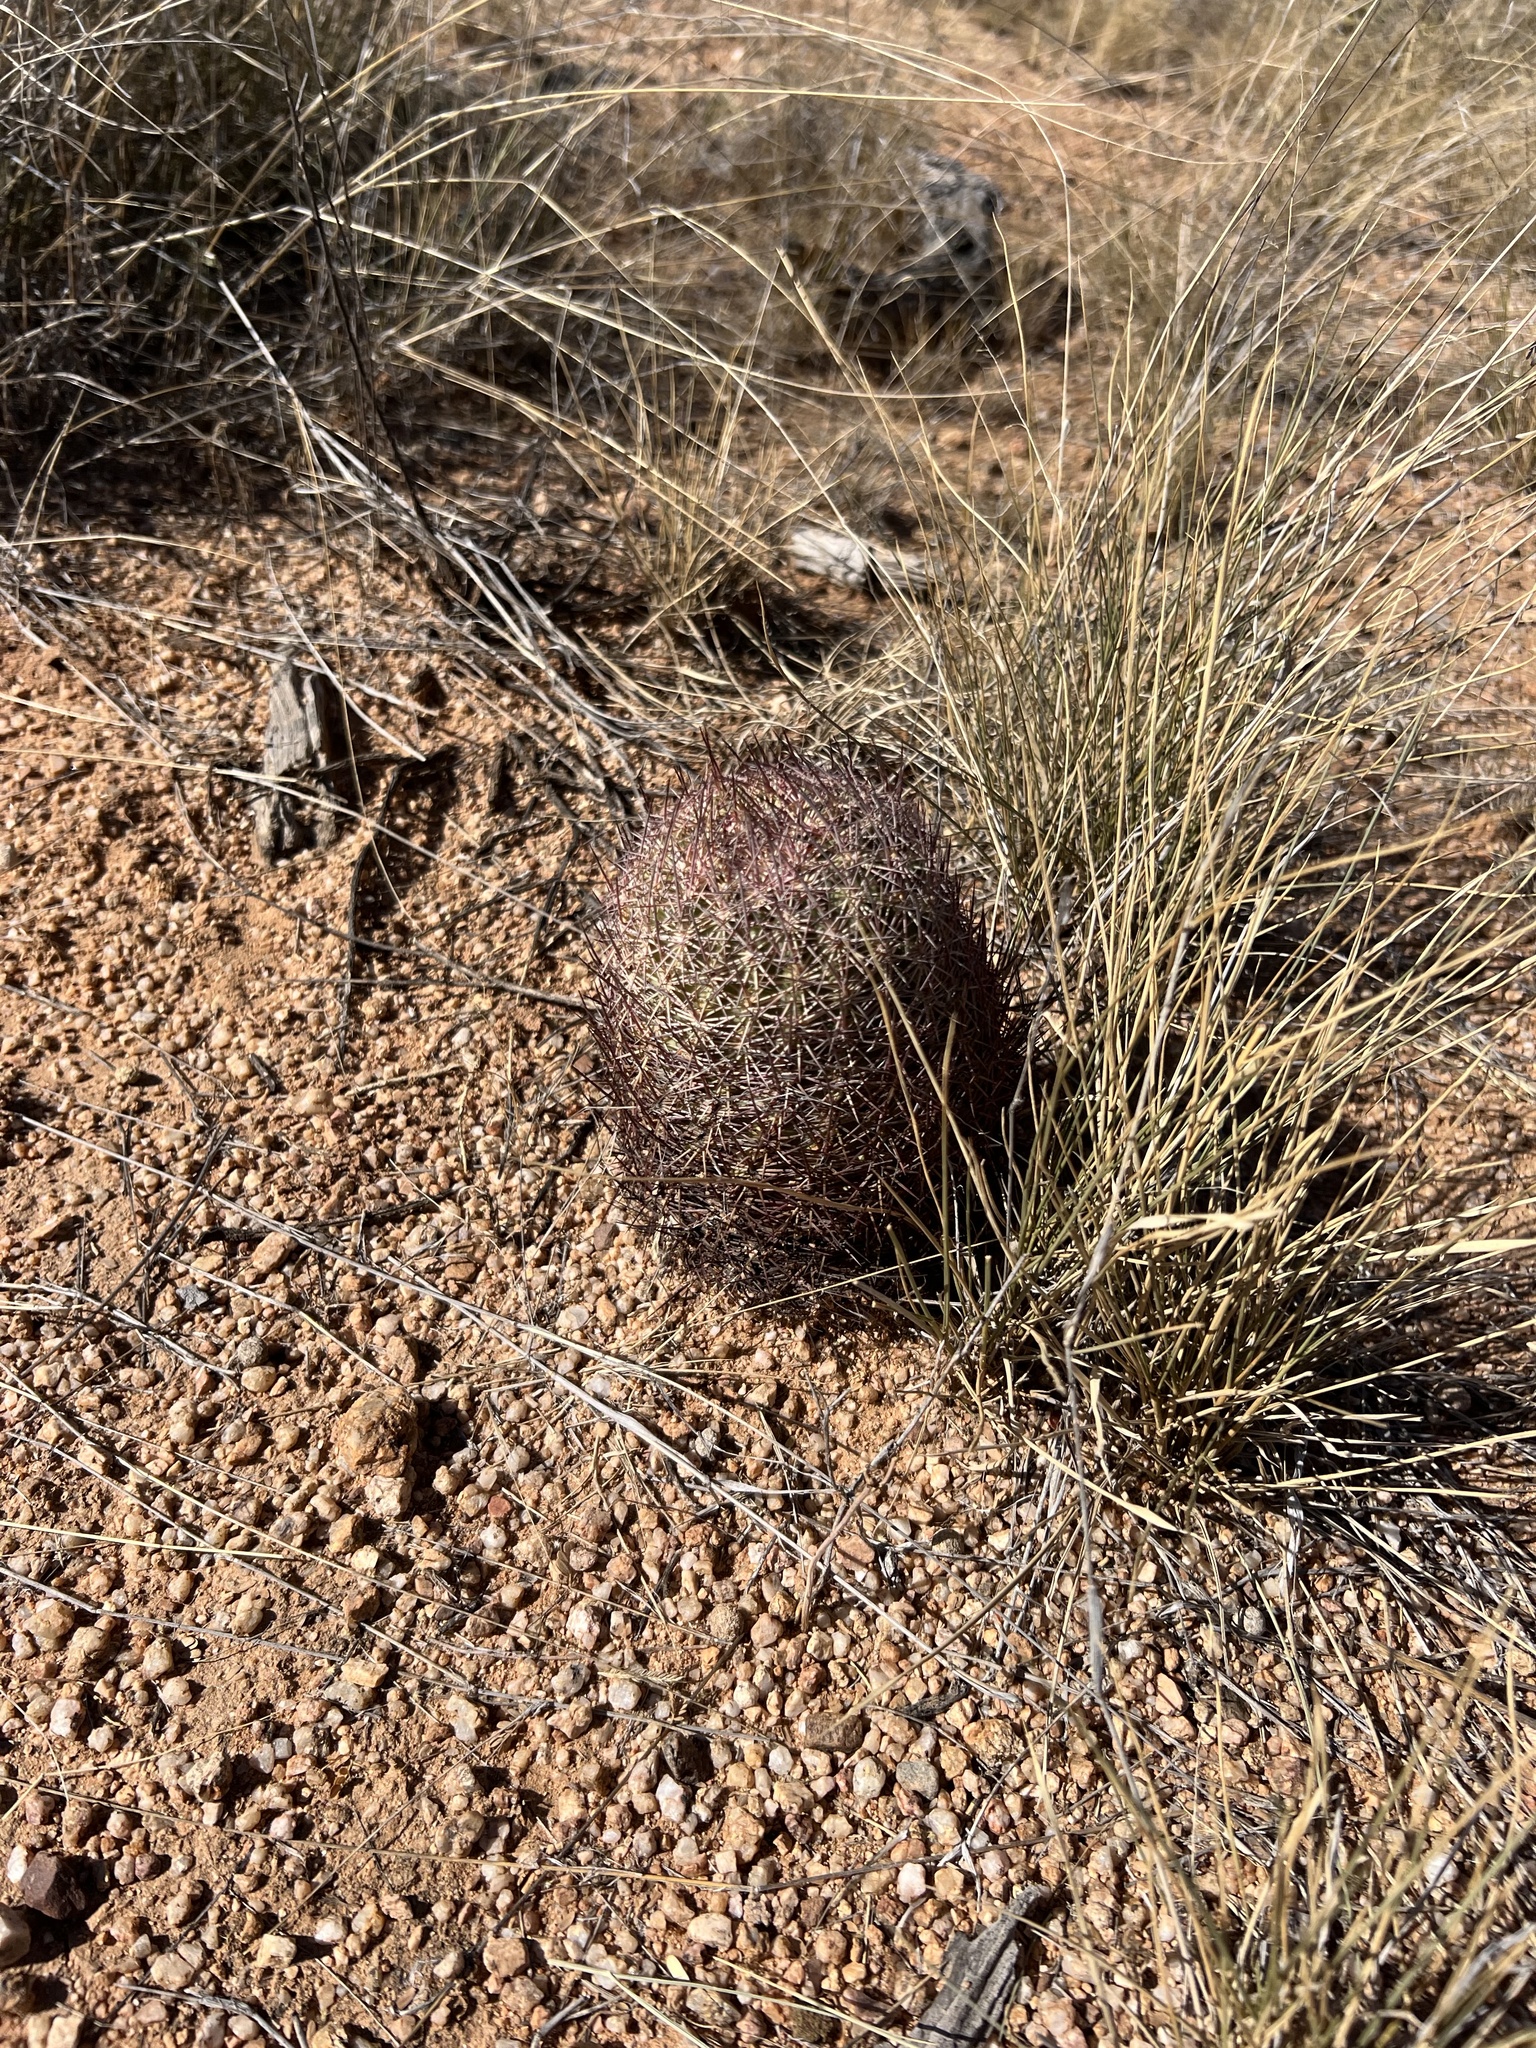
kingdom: Plantae
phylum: Tracheophyta
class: Magnoliopsida
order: Caryophyllales
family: Cactaceae
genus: Sclerocactus
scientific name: Sclerocactus johnsonii
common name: Eight-spine fishhook cactus
